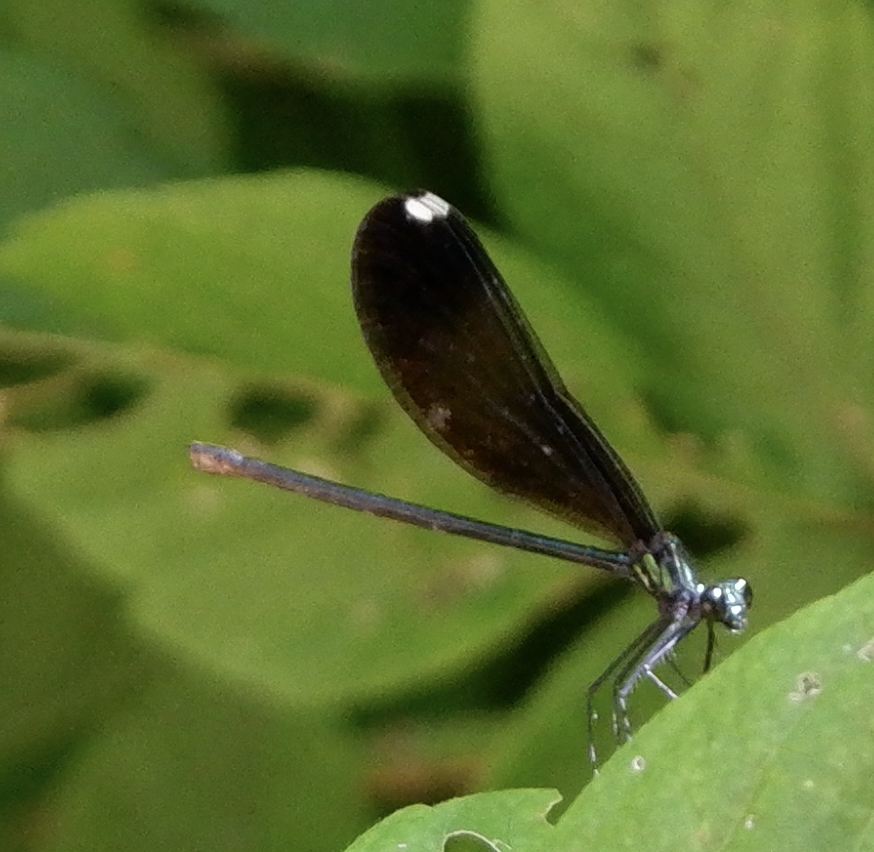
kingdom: Animalia
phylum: Arthropoda
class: Insecta
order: Odonata
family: Calopterygidae
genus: Calopteryx
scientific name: Calopteryx maculata
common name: Ebony jewelwing
